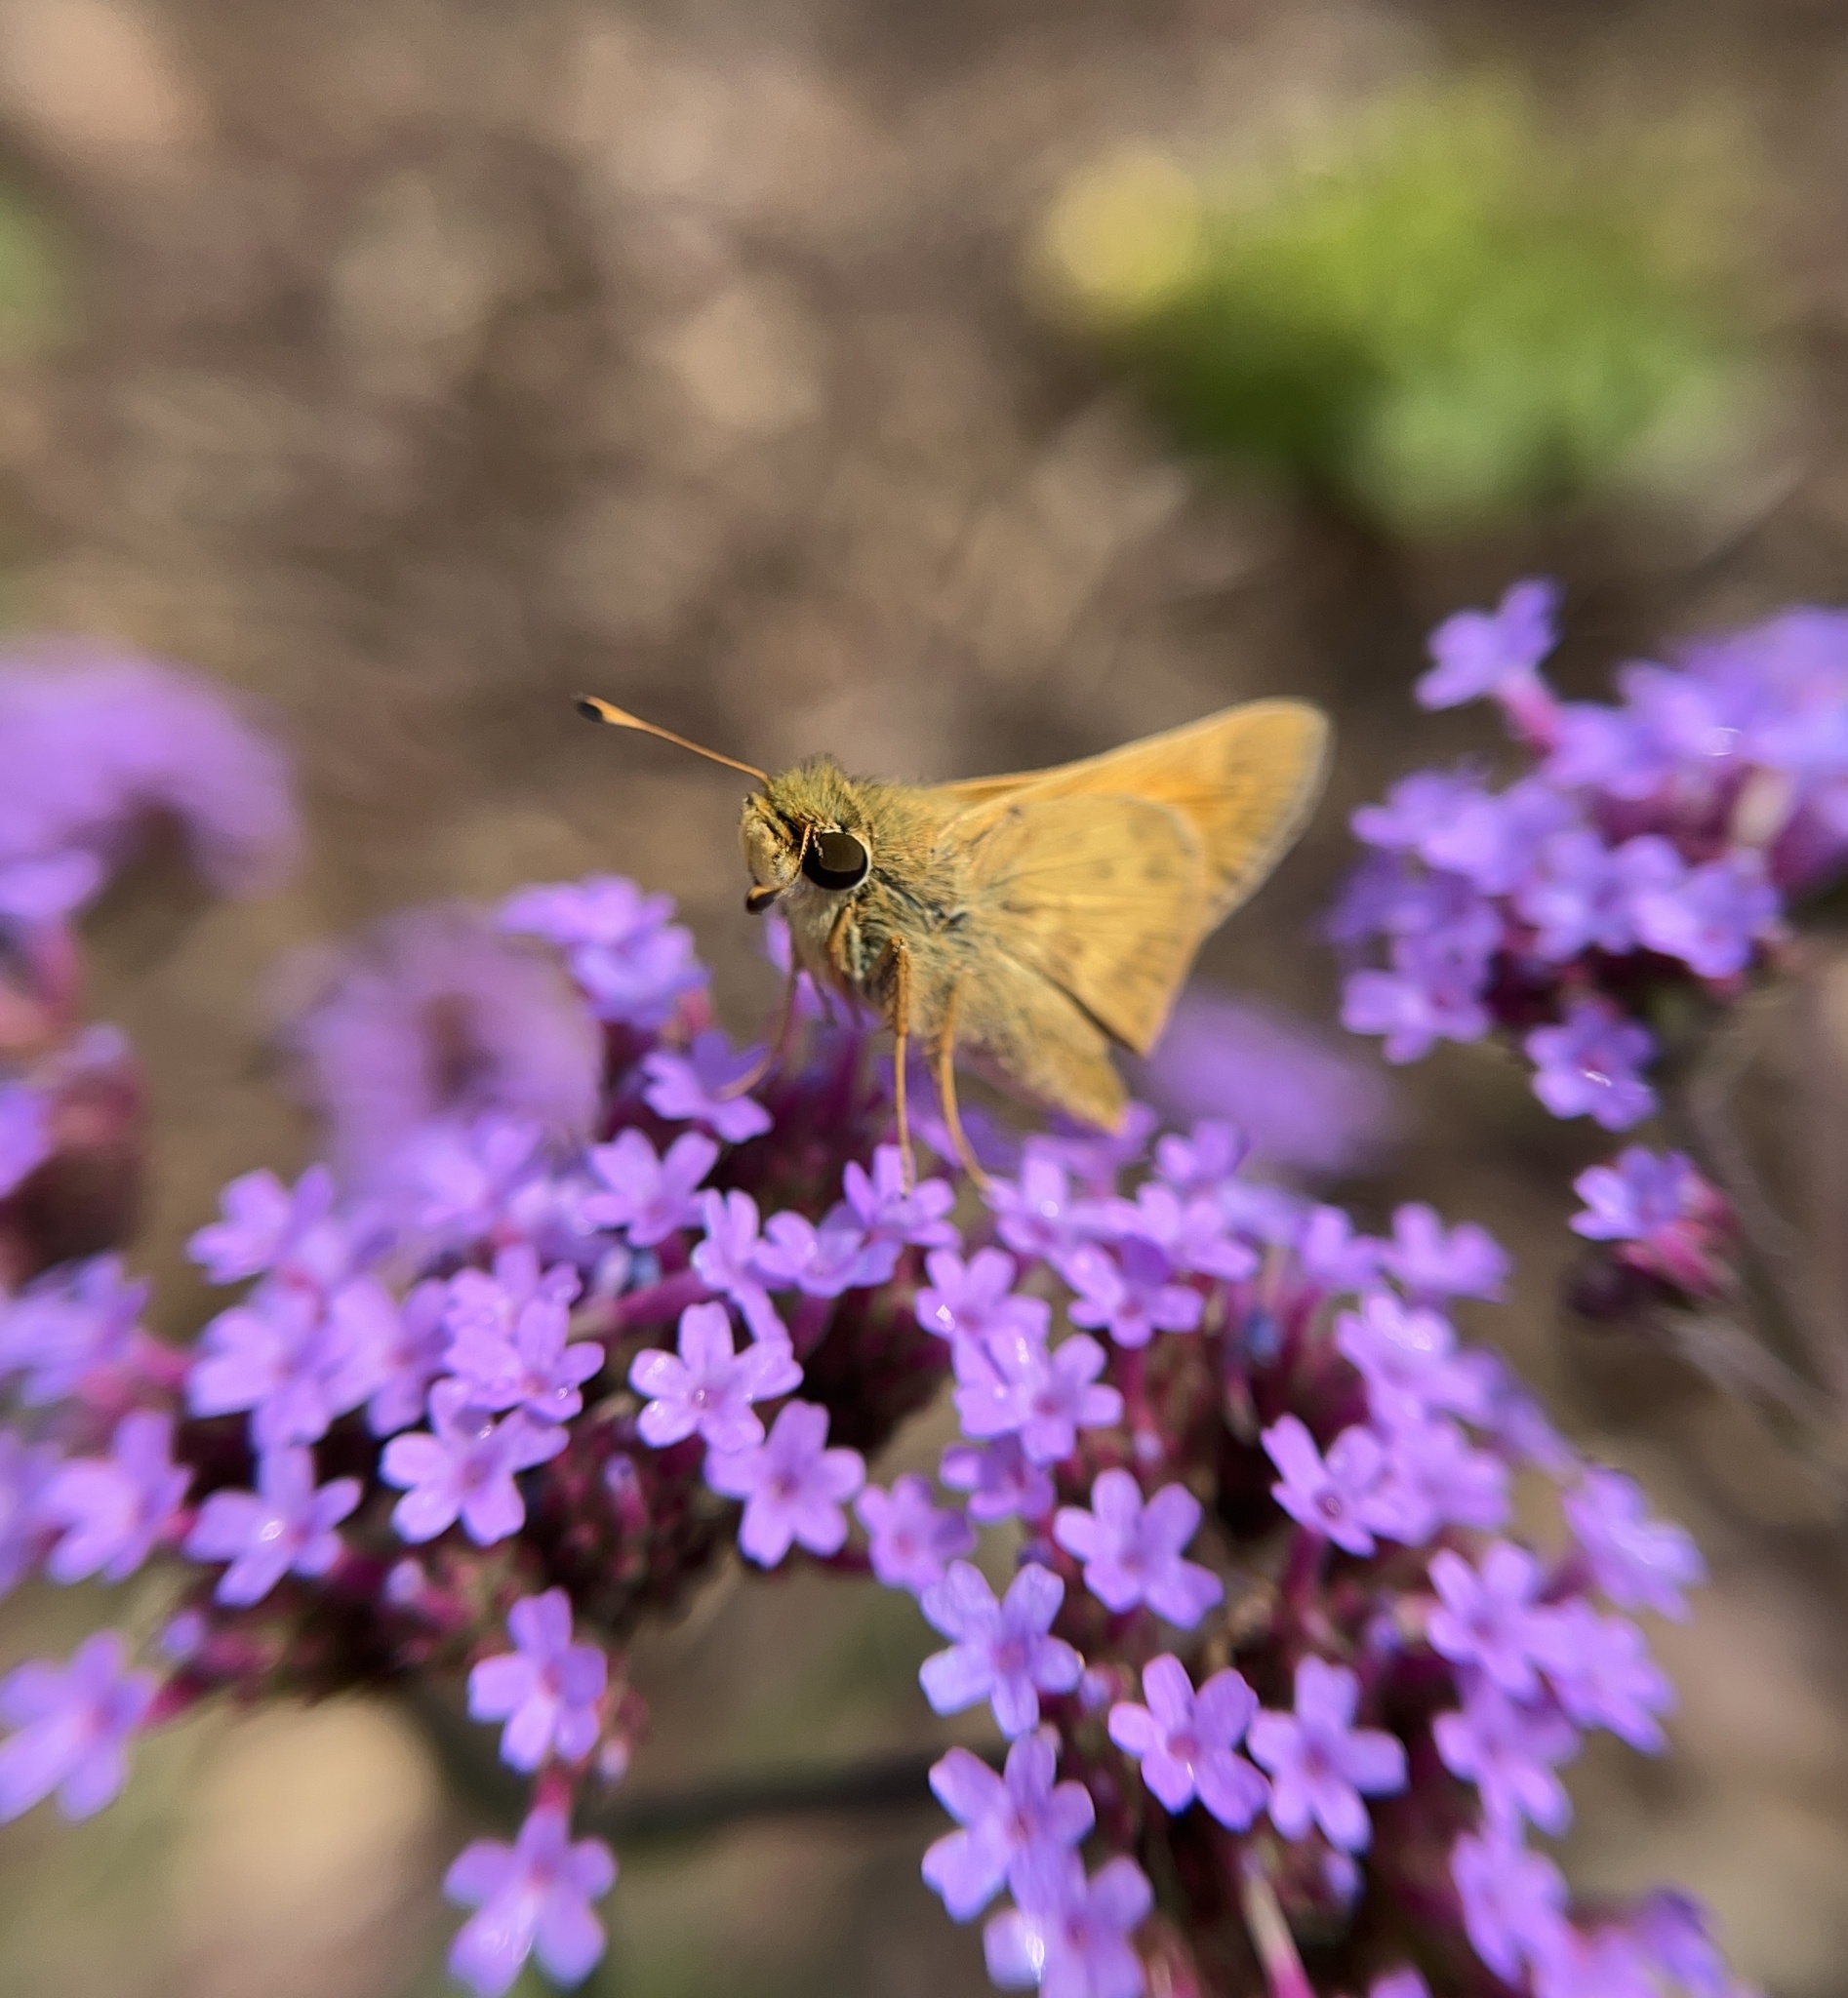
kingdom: Animalia
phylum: Arthropoda
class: Insecta
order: Lepidoptera
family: Hesperiidae
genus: Atalopedes
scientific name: Atalopedes
